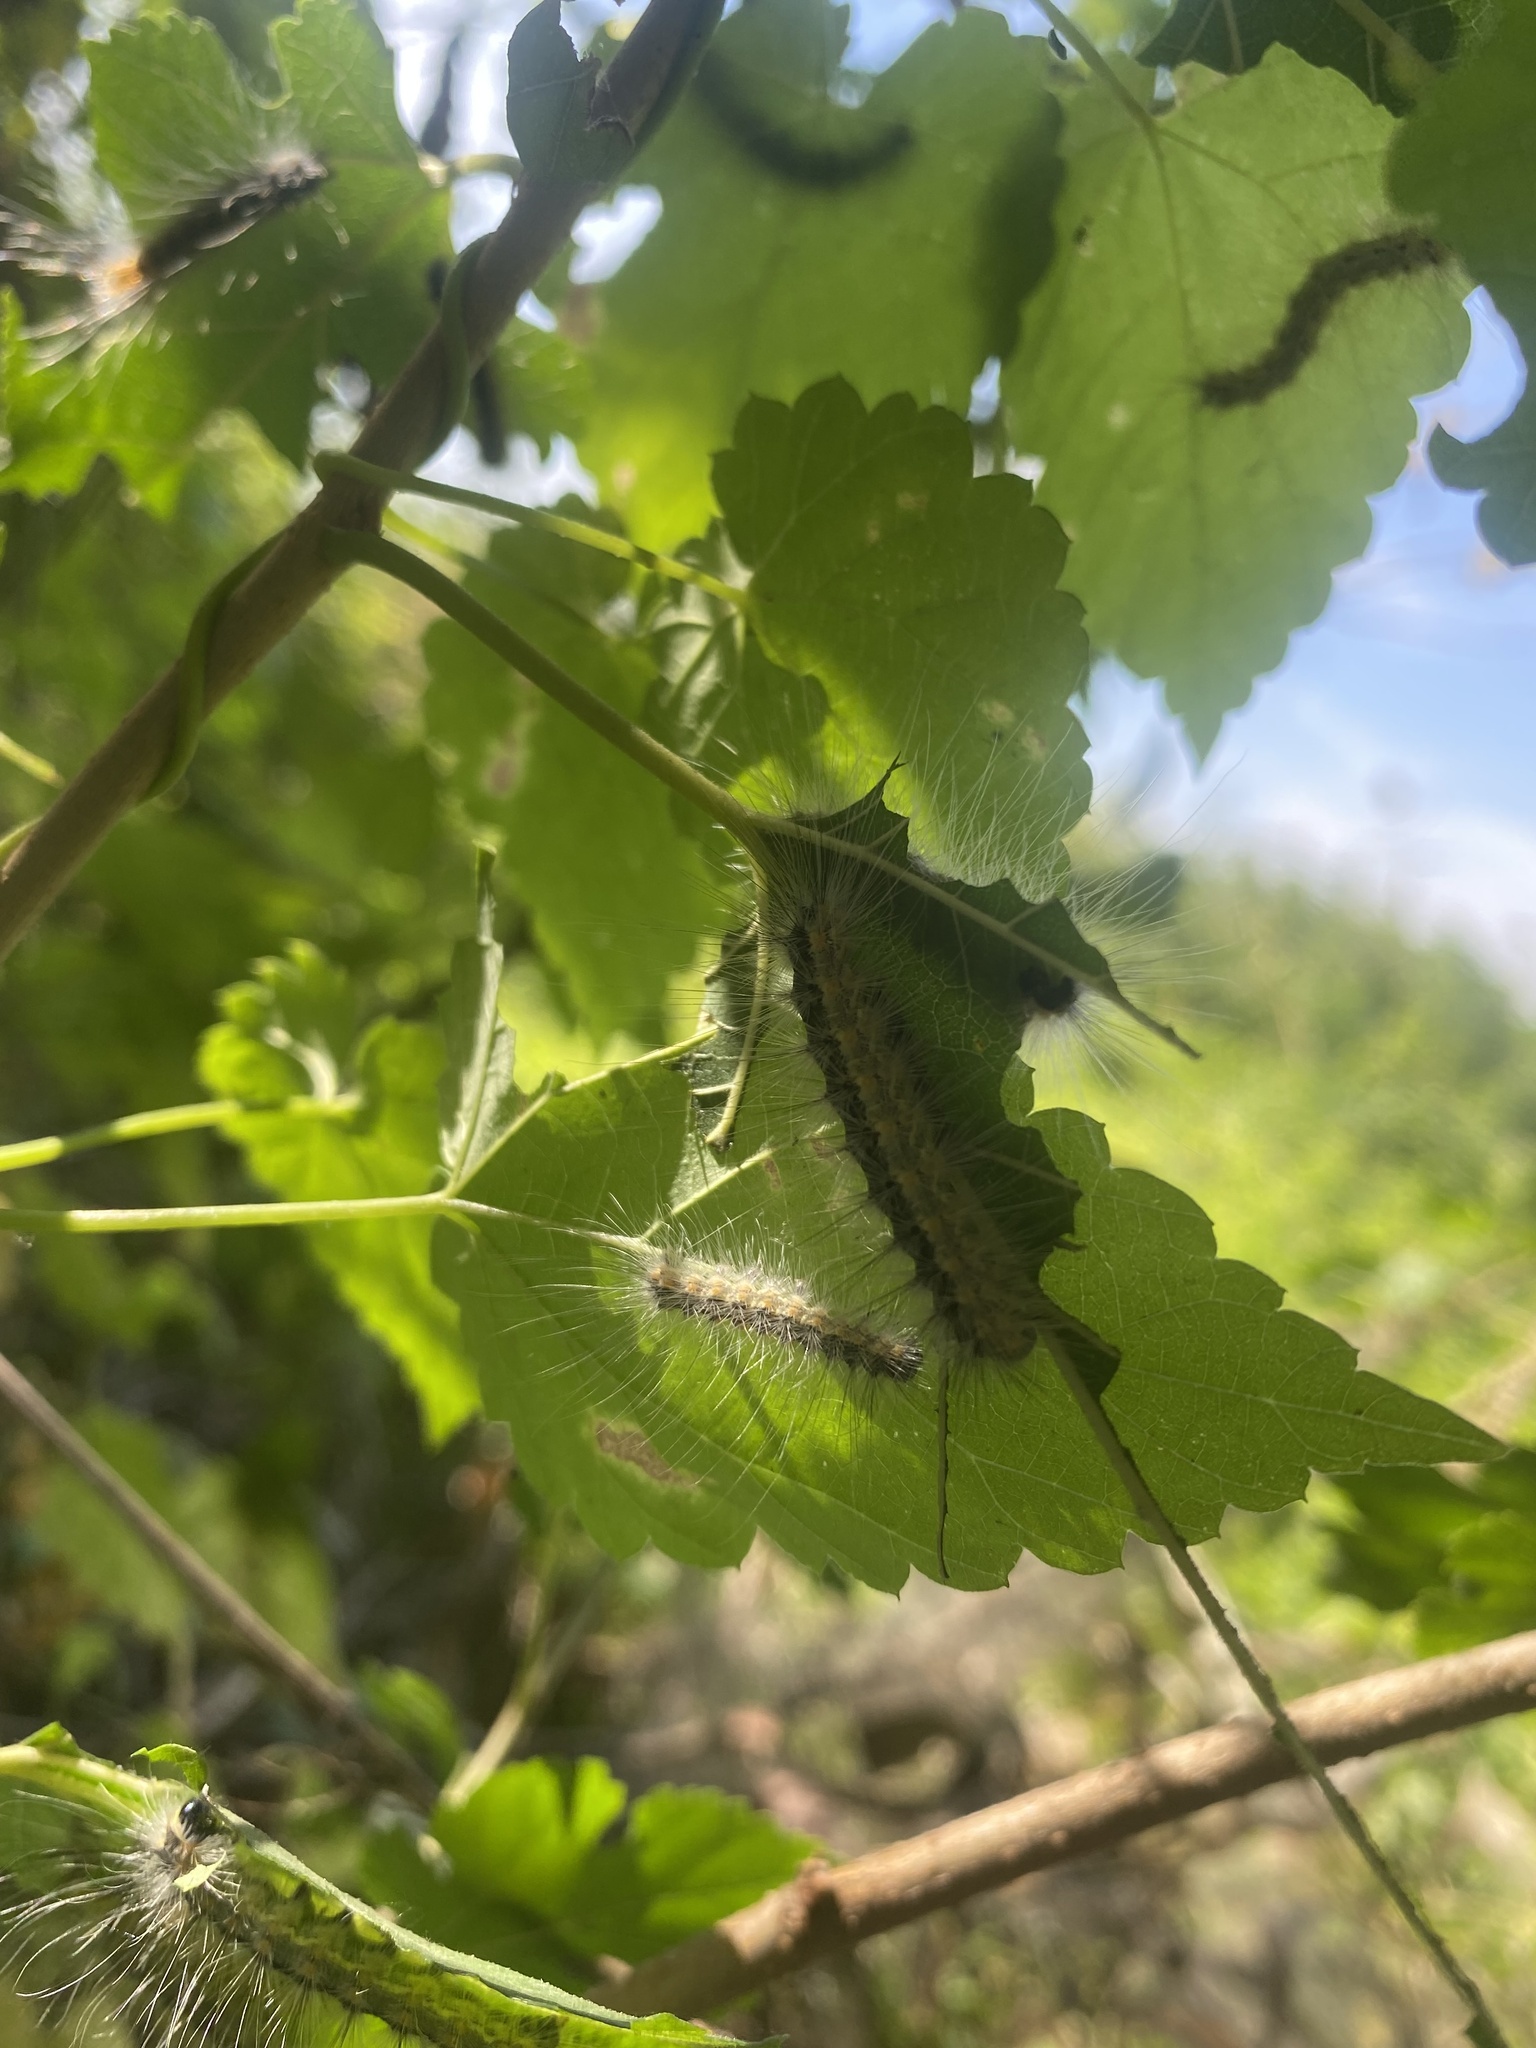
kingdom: Animalia
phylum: Arthropoda
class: Insecta
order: Lepidoptera
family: Erebidae
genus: Hyphantria
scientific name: Hyphantria cunea
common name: American white moth
